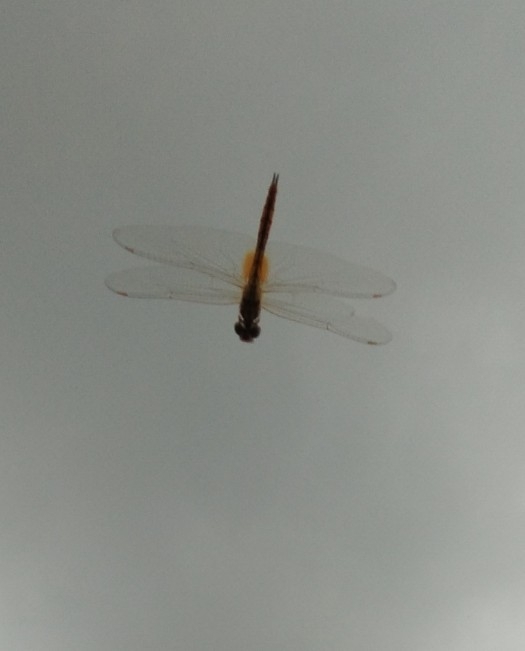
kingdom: Animalia
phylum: Arthropoda
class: Insecta
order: Odonata
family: Libellulidae
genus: Pantala
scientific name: Pantala flavescens
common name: Wandering glider
